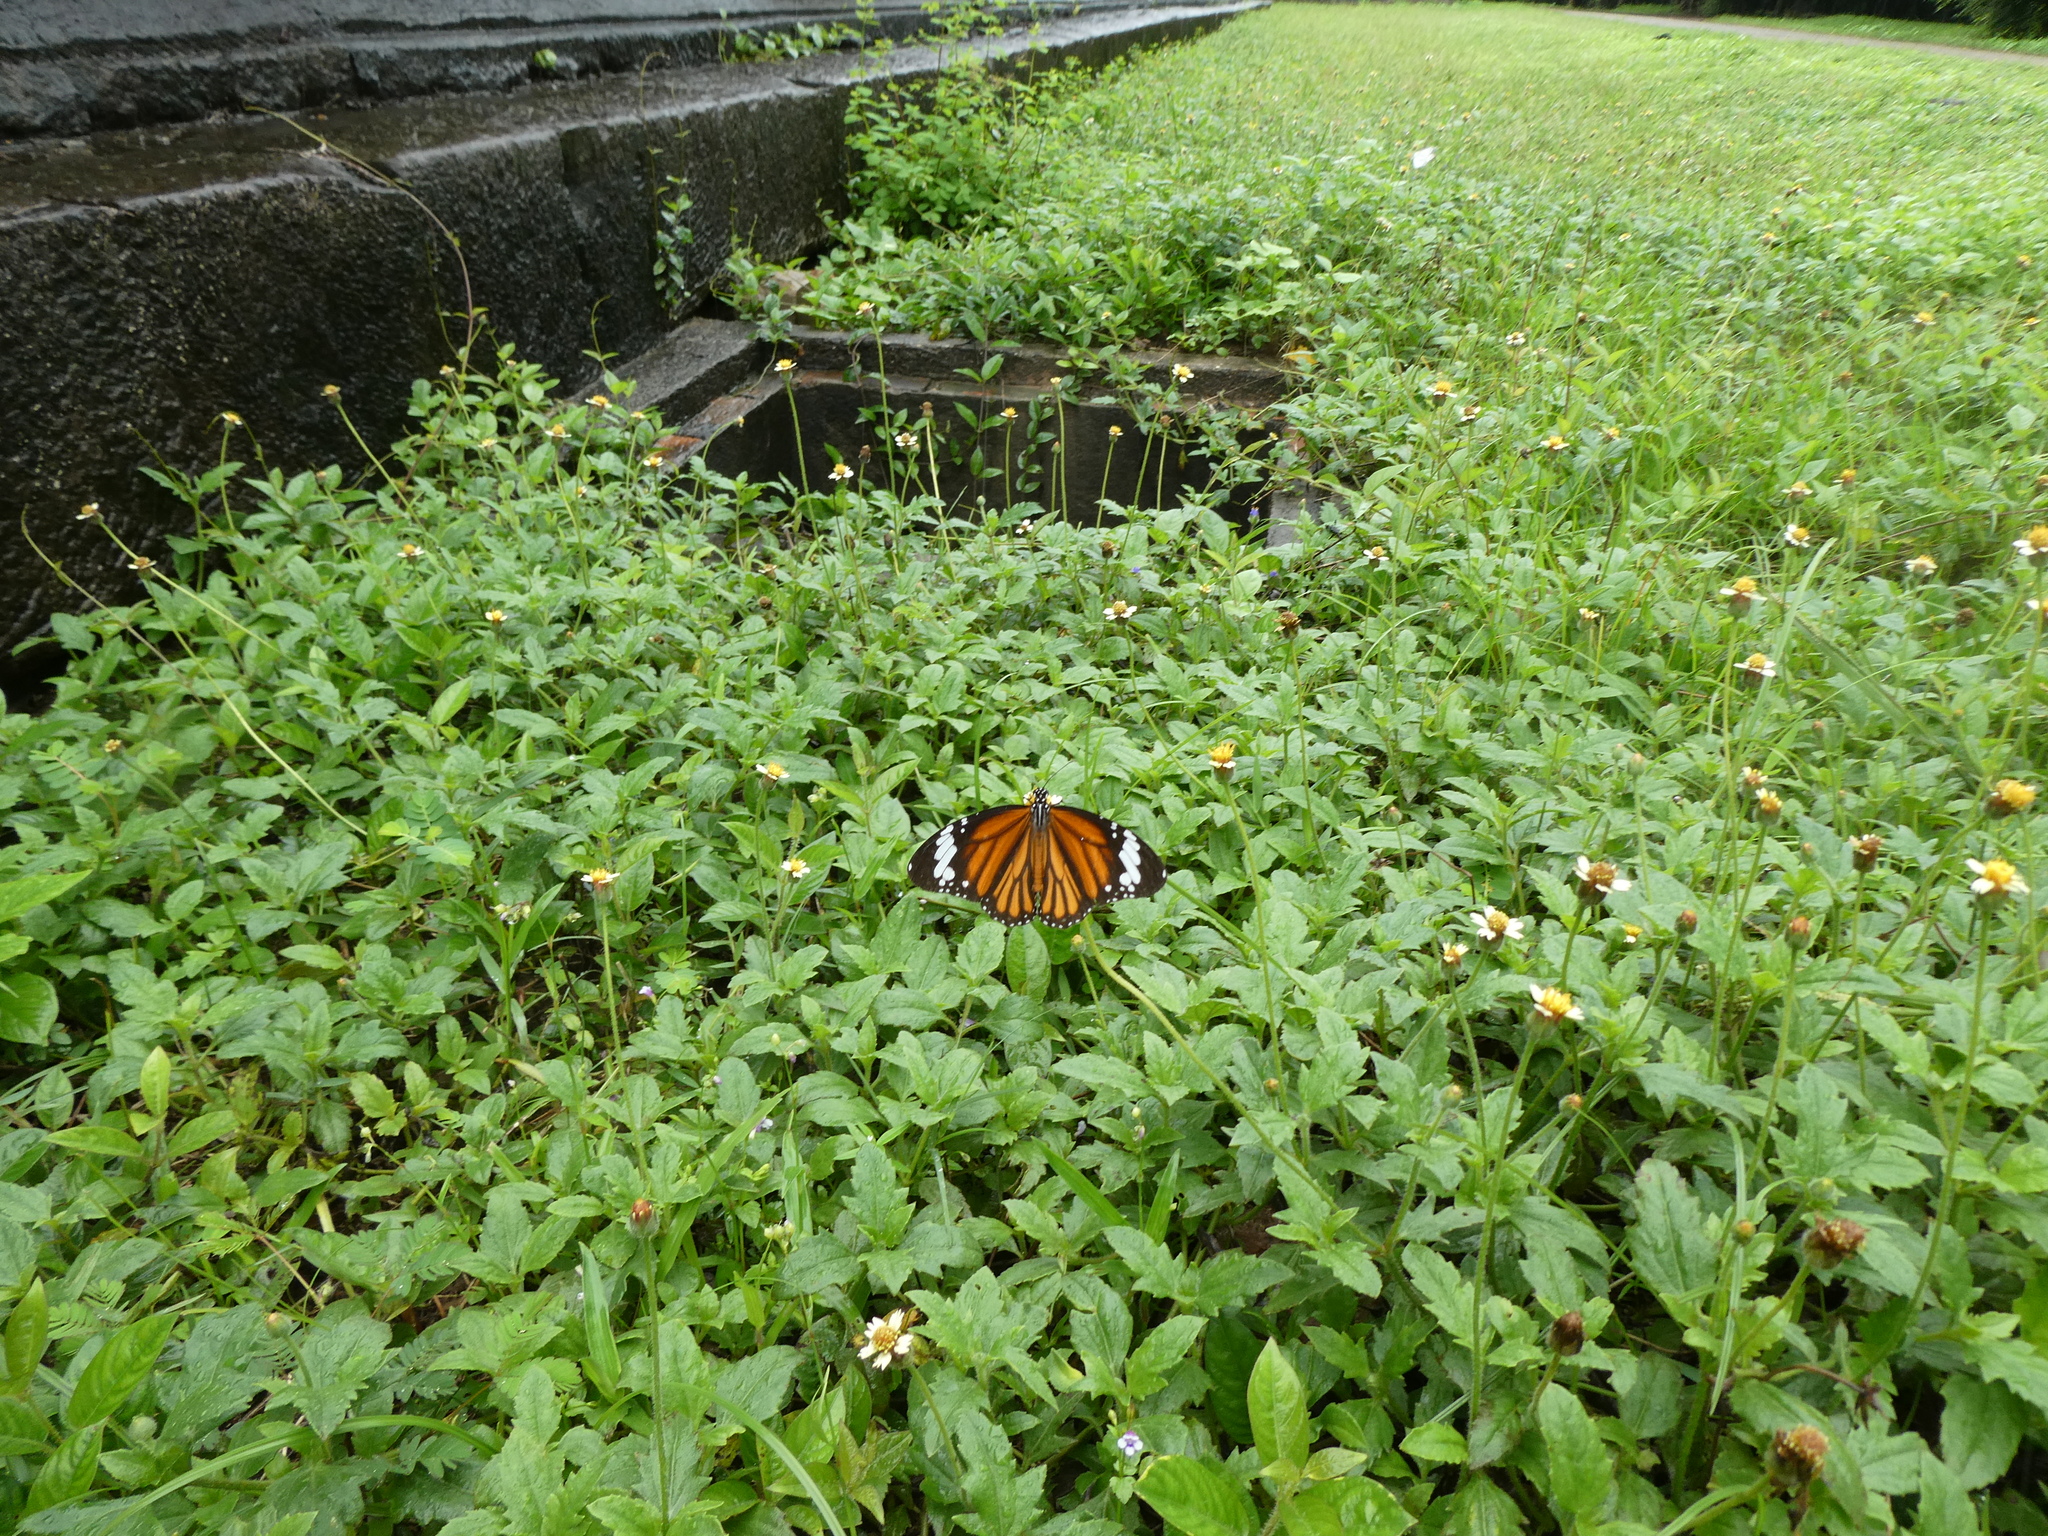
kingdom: Animalia
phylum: Arthropoda
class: Insecta
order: Lepidoptera
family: Nymphalidae
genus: Danaus
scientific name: Danaus genutia
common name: Common tiger butterfly
